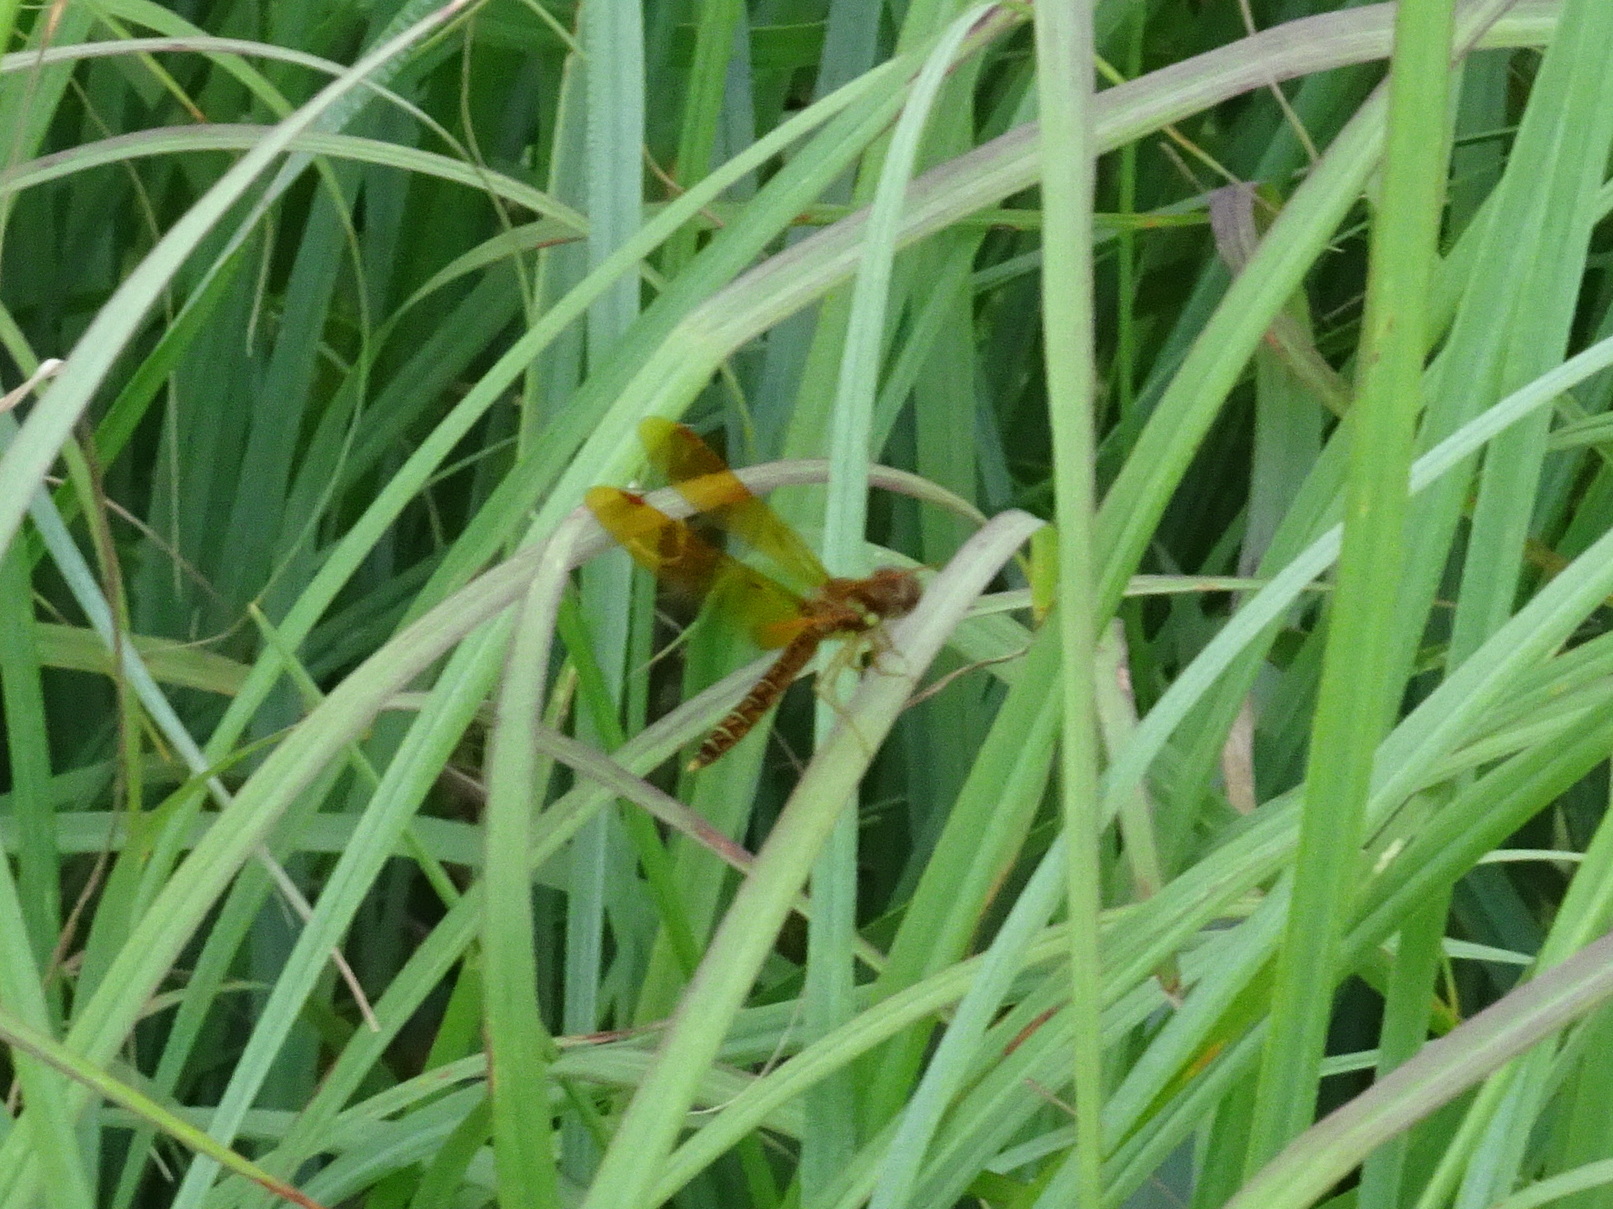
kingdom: Animalia
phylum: Arthropoda
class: Insecta
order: Odonata
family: Libellulidae
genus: Perithemis
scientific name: Perithemis tenera
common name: Eastern amberwing
